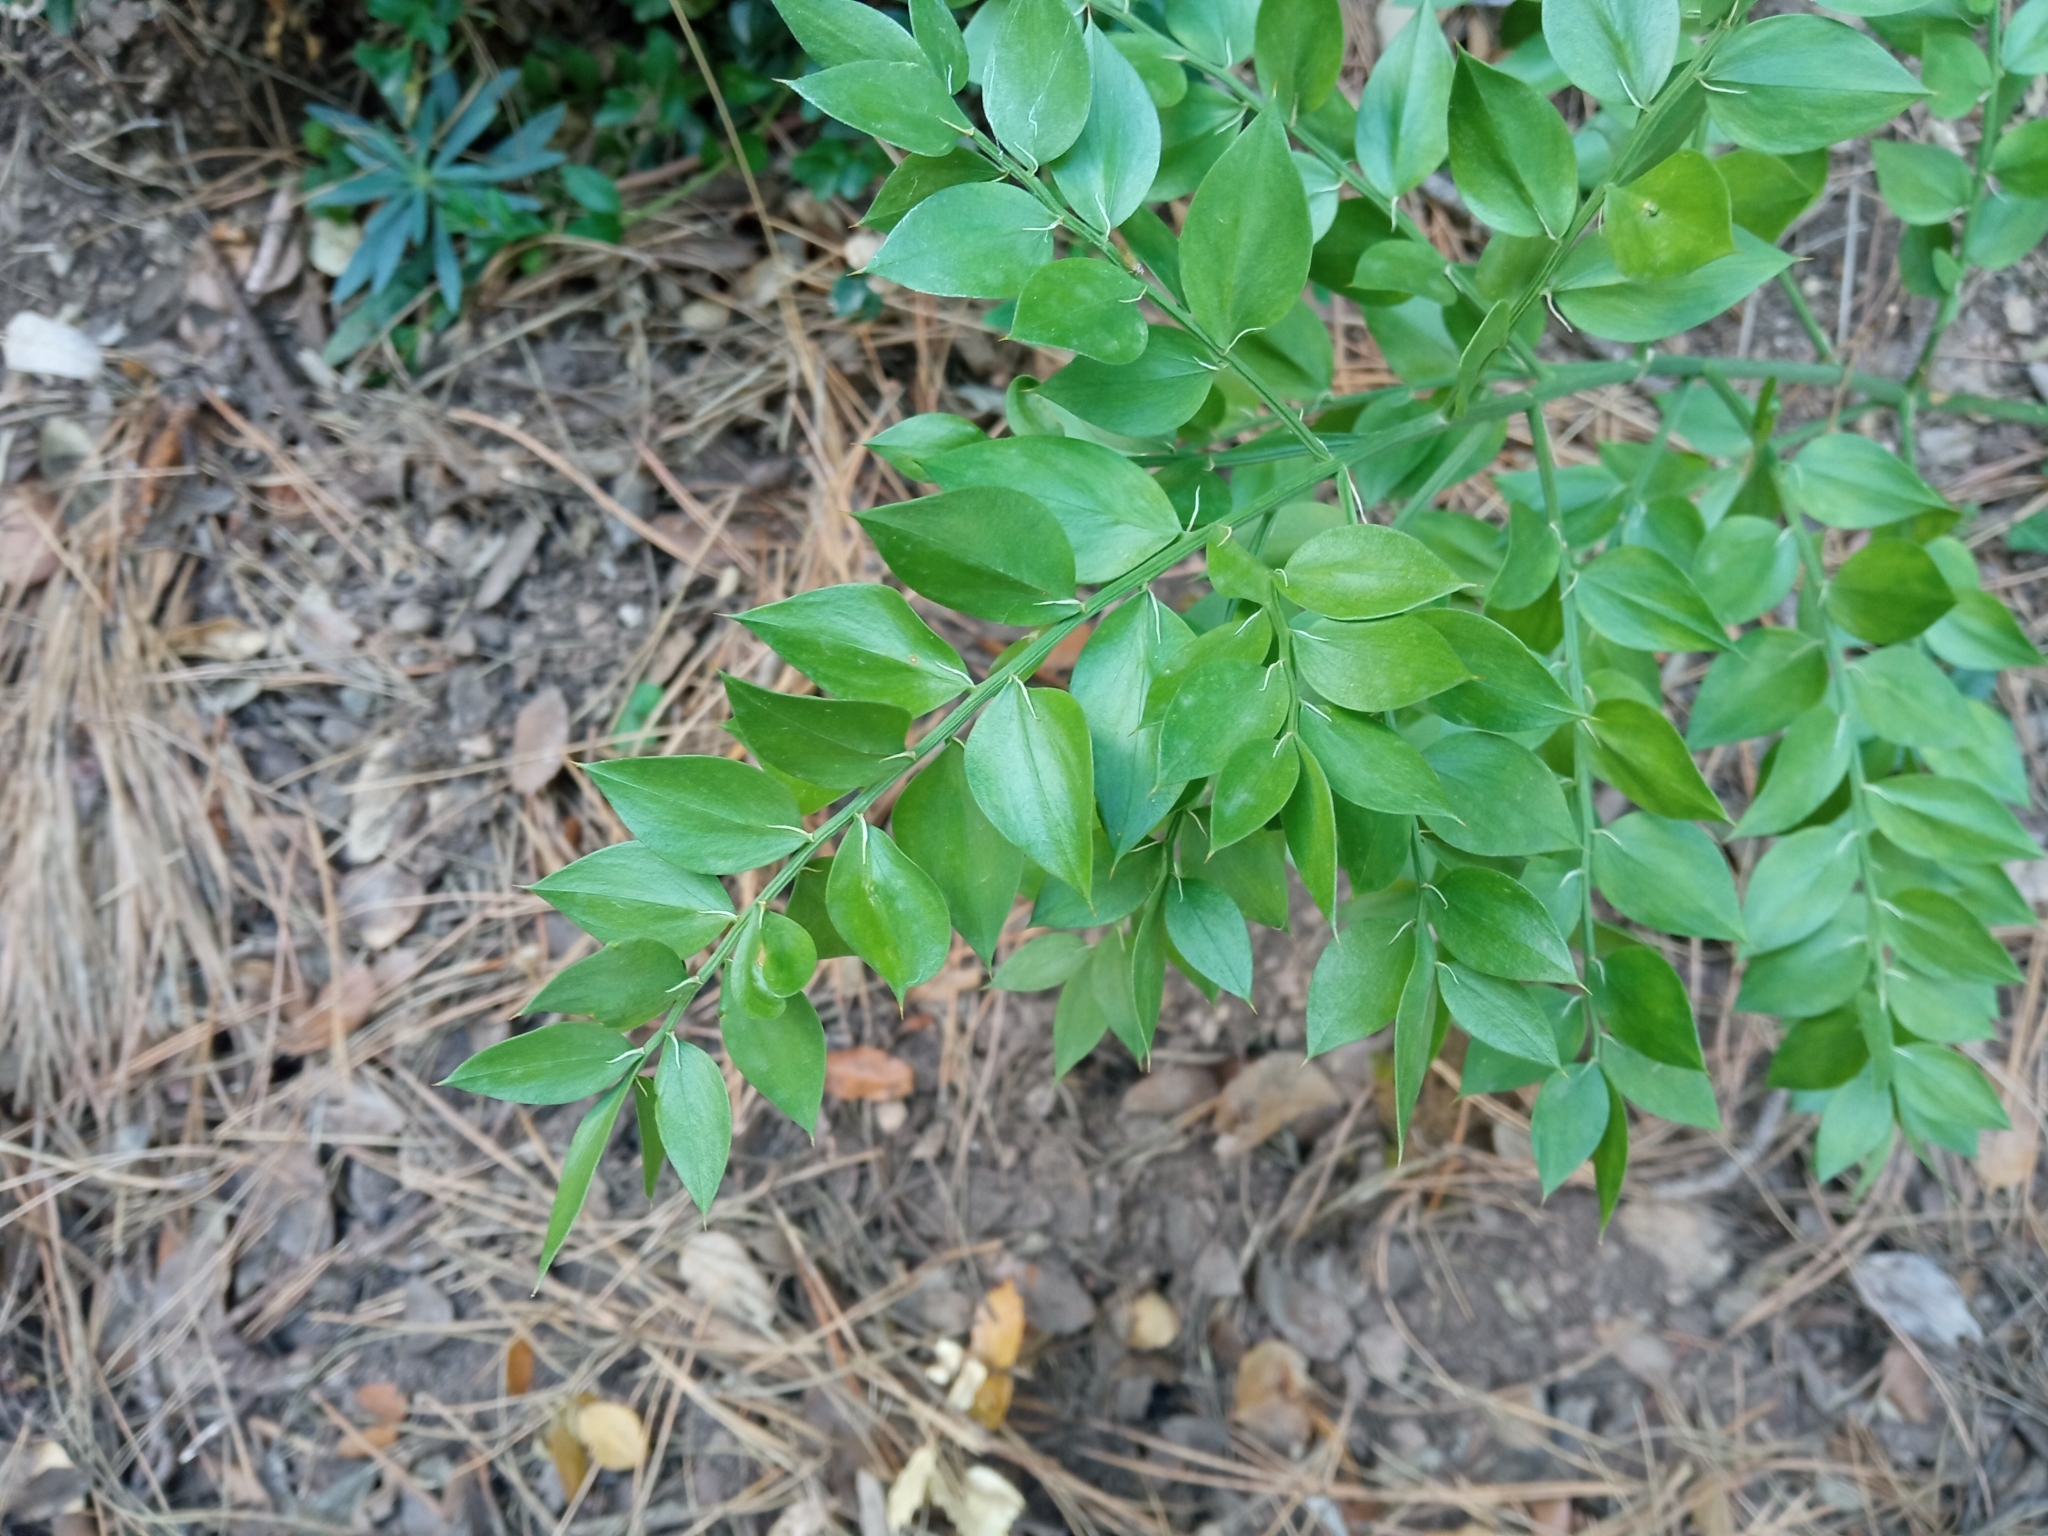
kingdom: Plantae
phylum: Tracheophyta
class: Liliopsida
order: Asparagales
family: Asparagaceae
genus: Ruscus
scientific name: Ruscus aculeatus
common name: Butcher's-broom
